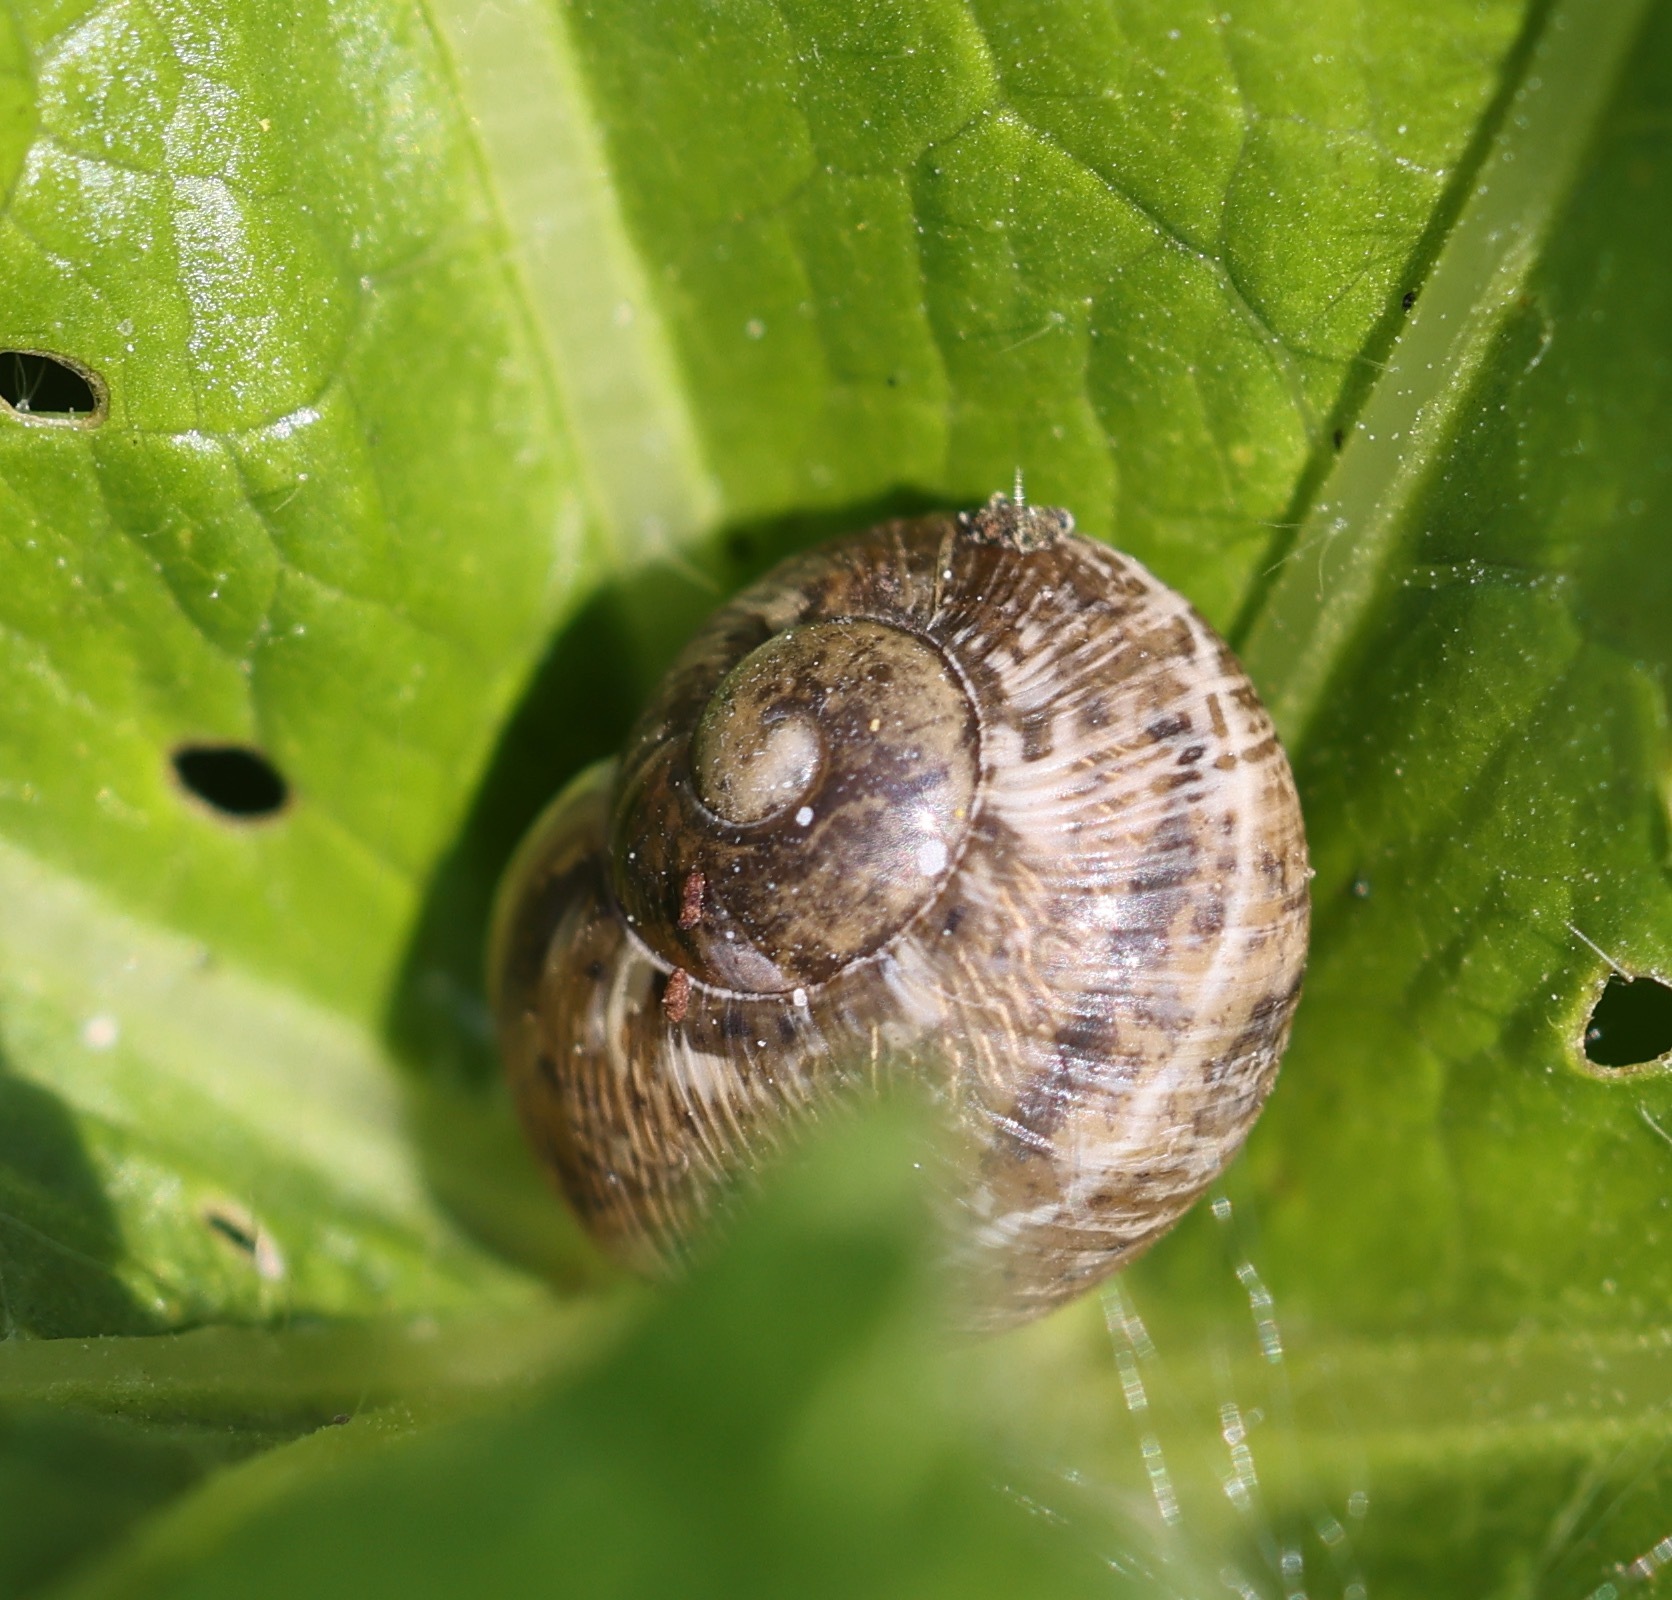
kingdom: Animalia
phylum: Mollusca
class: Gastropoda
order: Stylommatophora
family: Helicidae
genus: Cornu
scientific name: Cornu aspersum
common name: Brown garden snail
